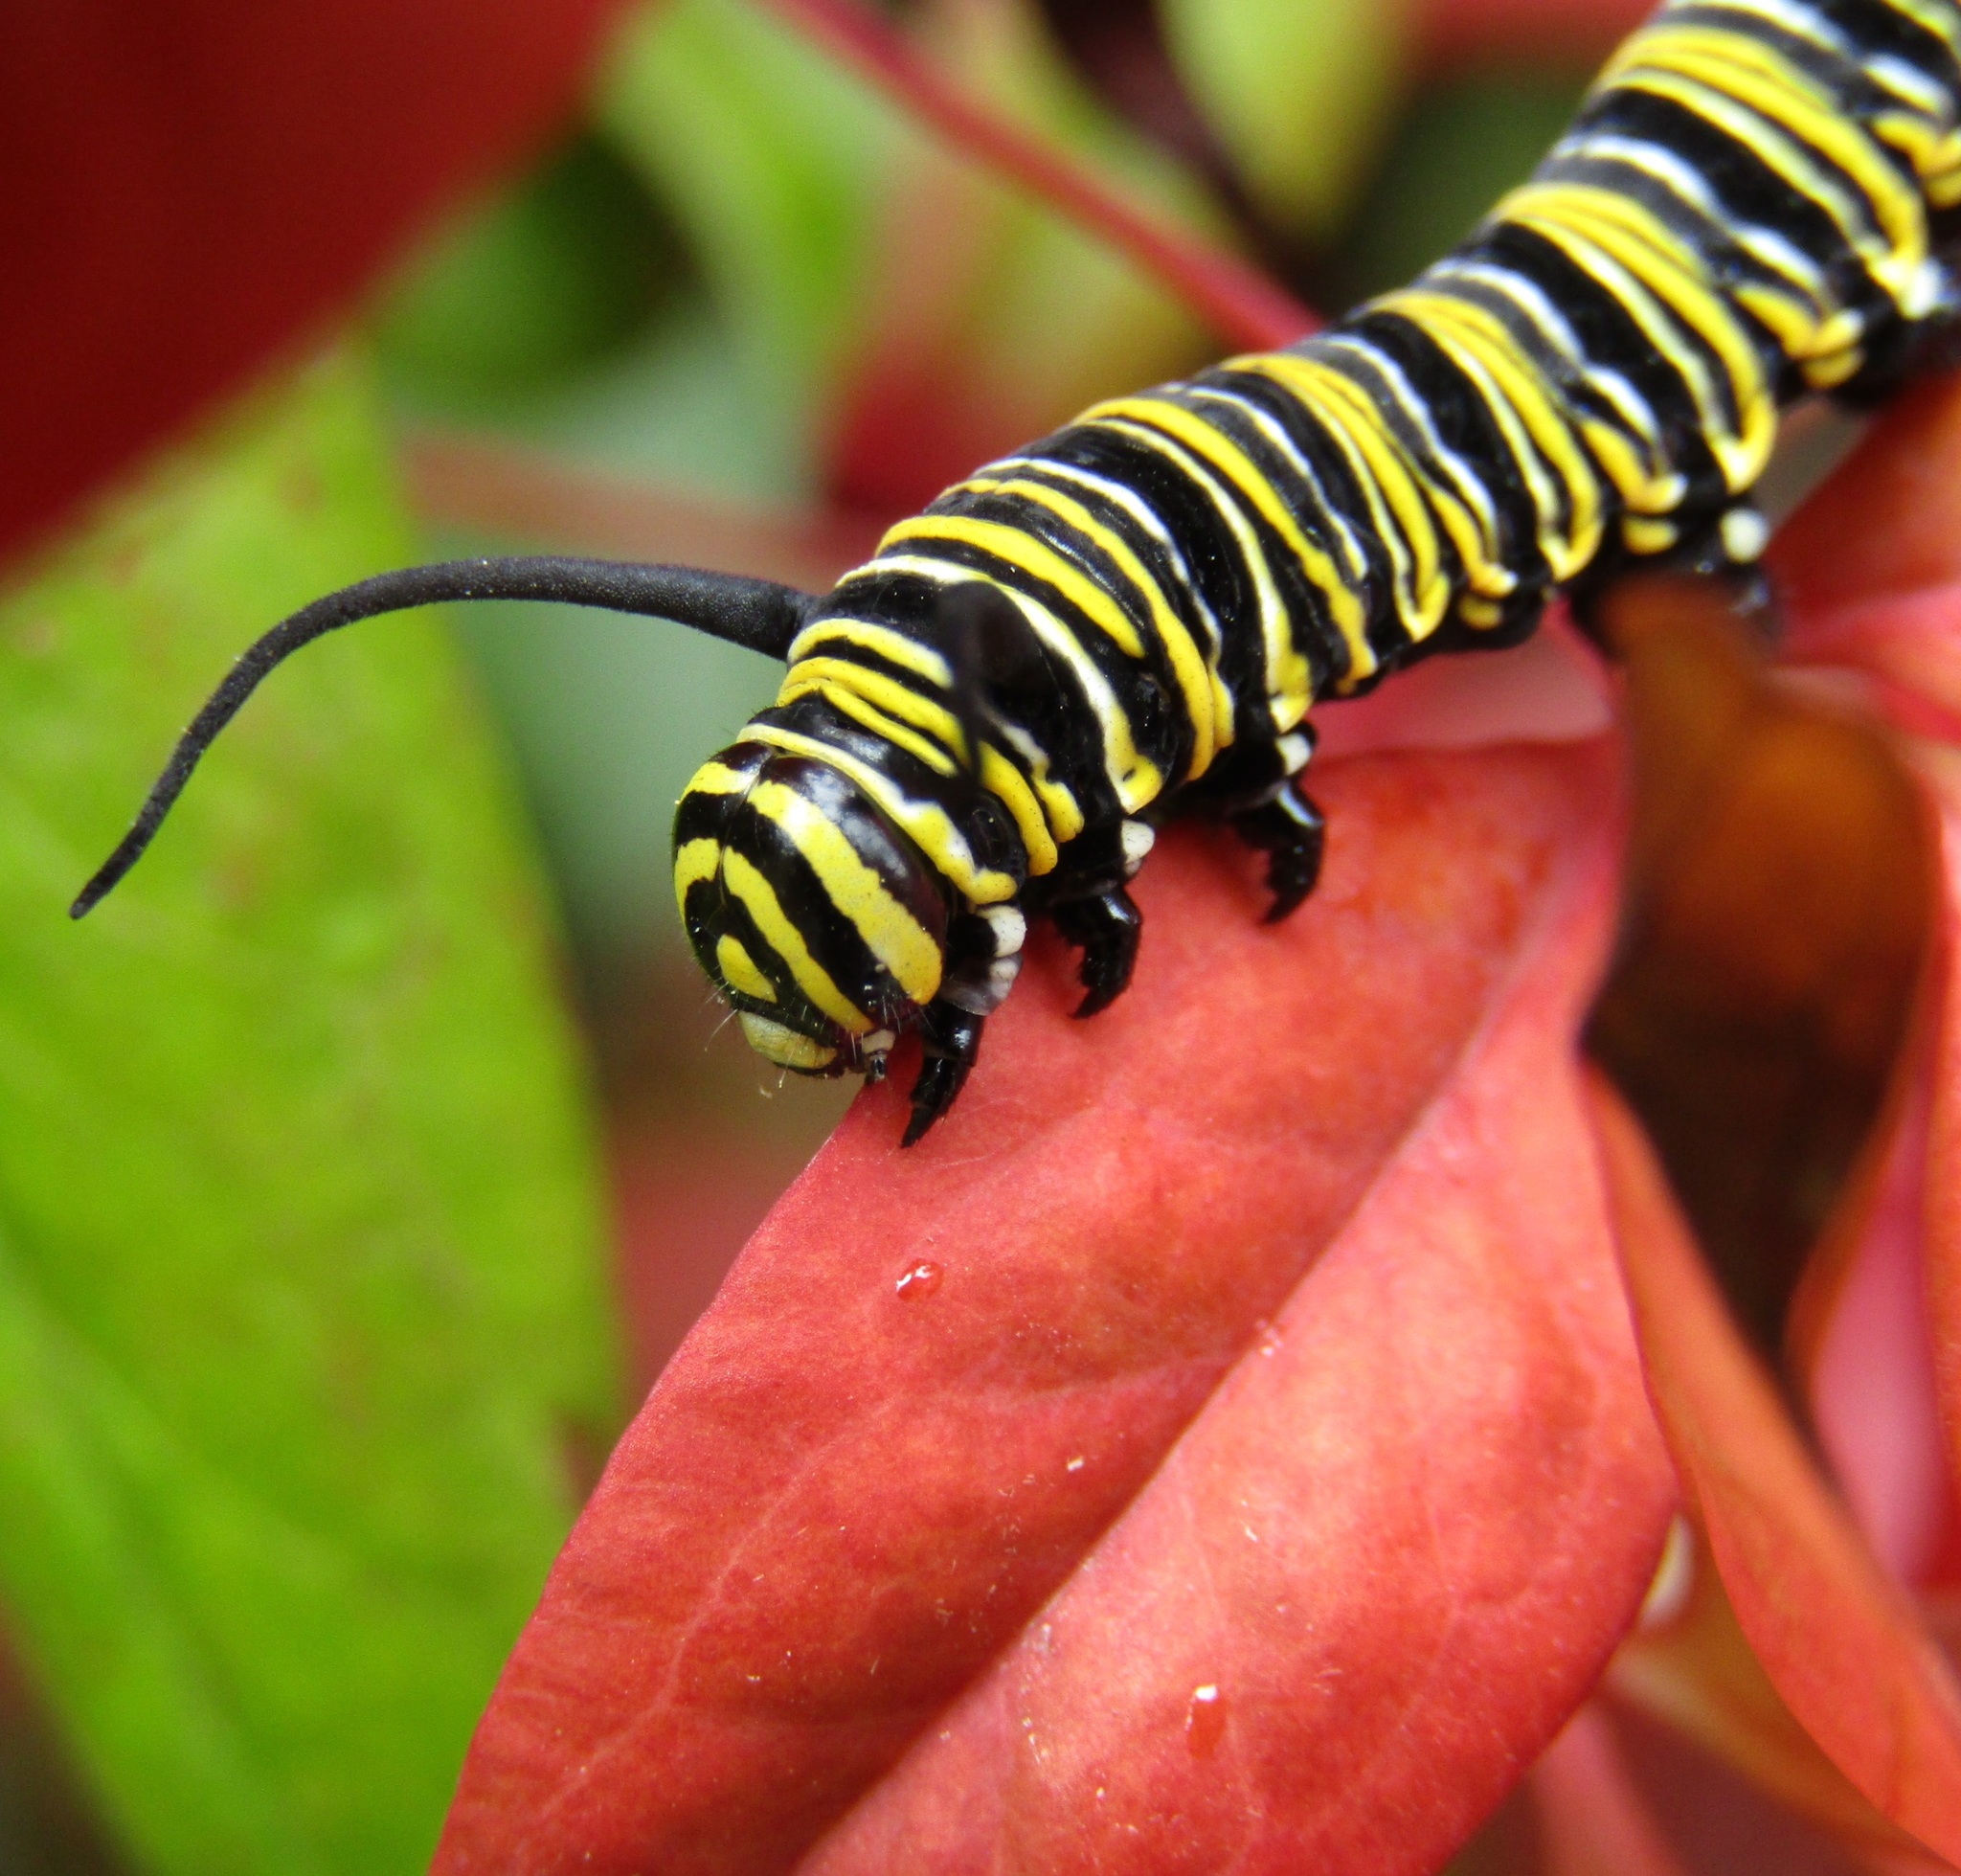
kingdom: Animalia
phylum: Arthropoda
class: Insecta
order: Lepidoptera
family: Nymphalidae
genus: Danaus
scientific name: Danaus plexippus
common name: Monarch
